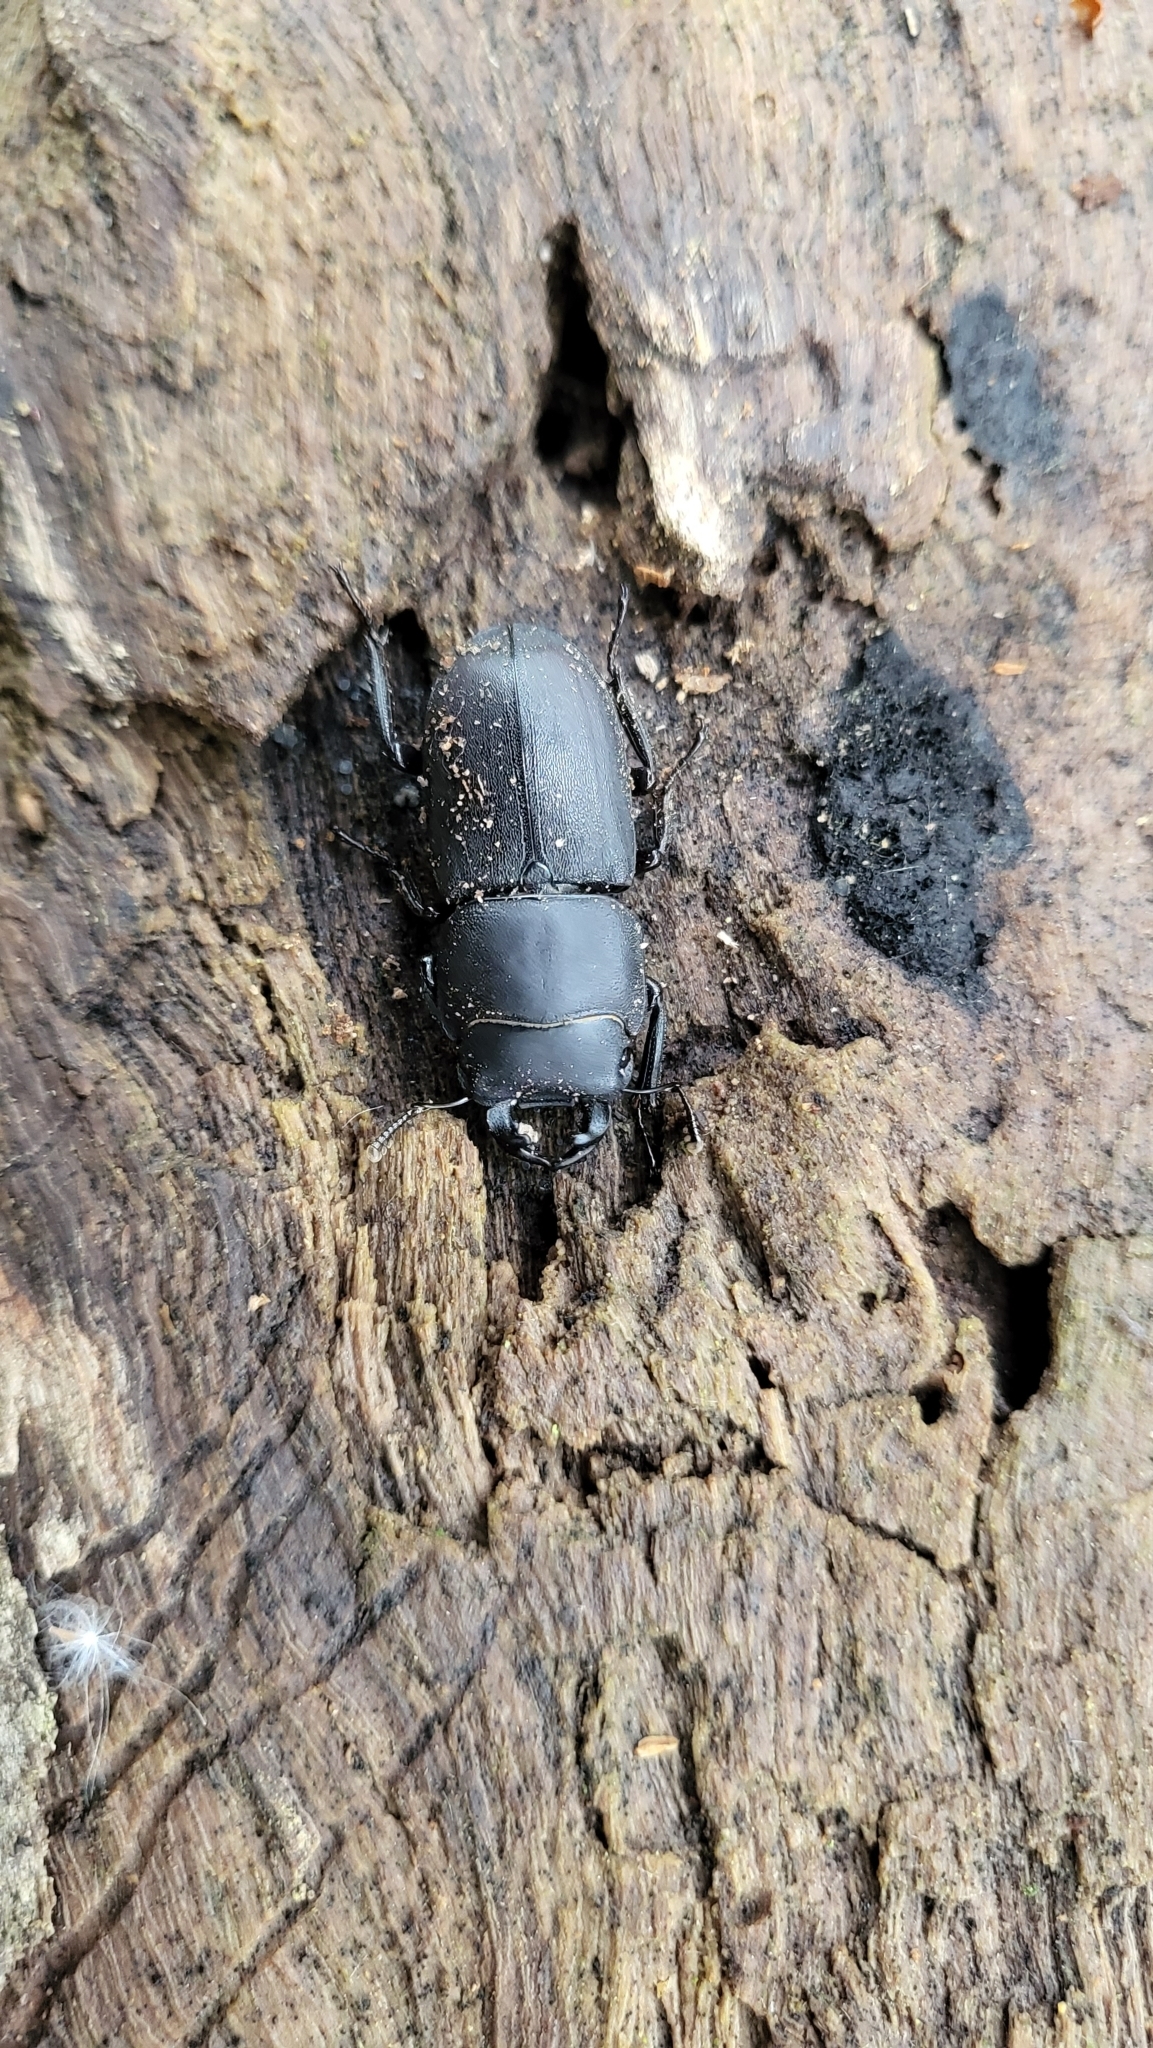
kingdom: Animalia
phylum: Arthropoda
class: Insecta
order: Coleoptera
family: Lucanidae
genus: Dorcus
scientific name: Dorcus parallelipipedus
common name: Lesser stag beetle
